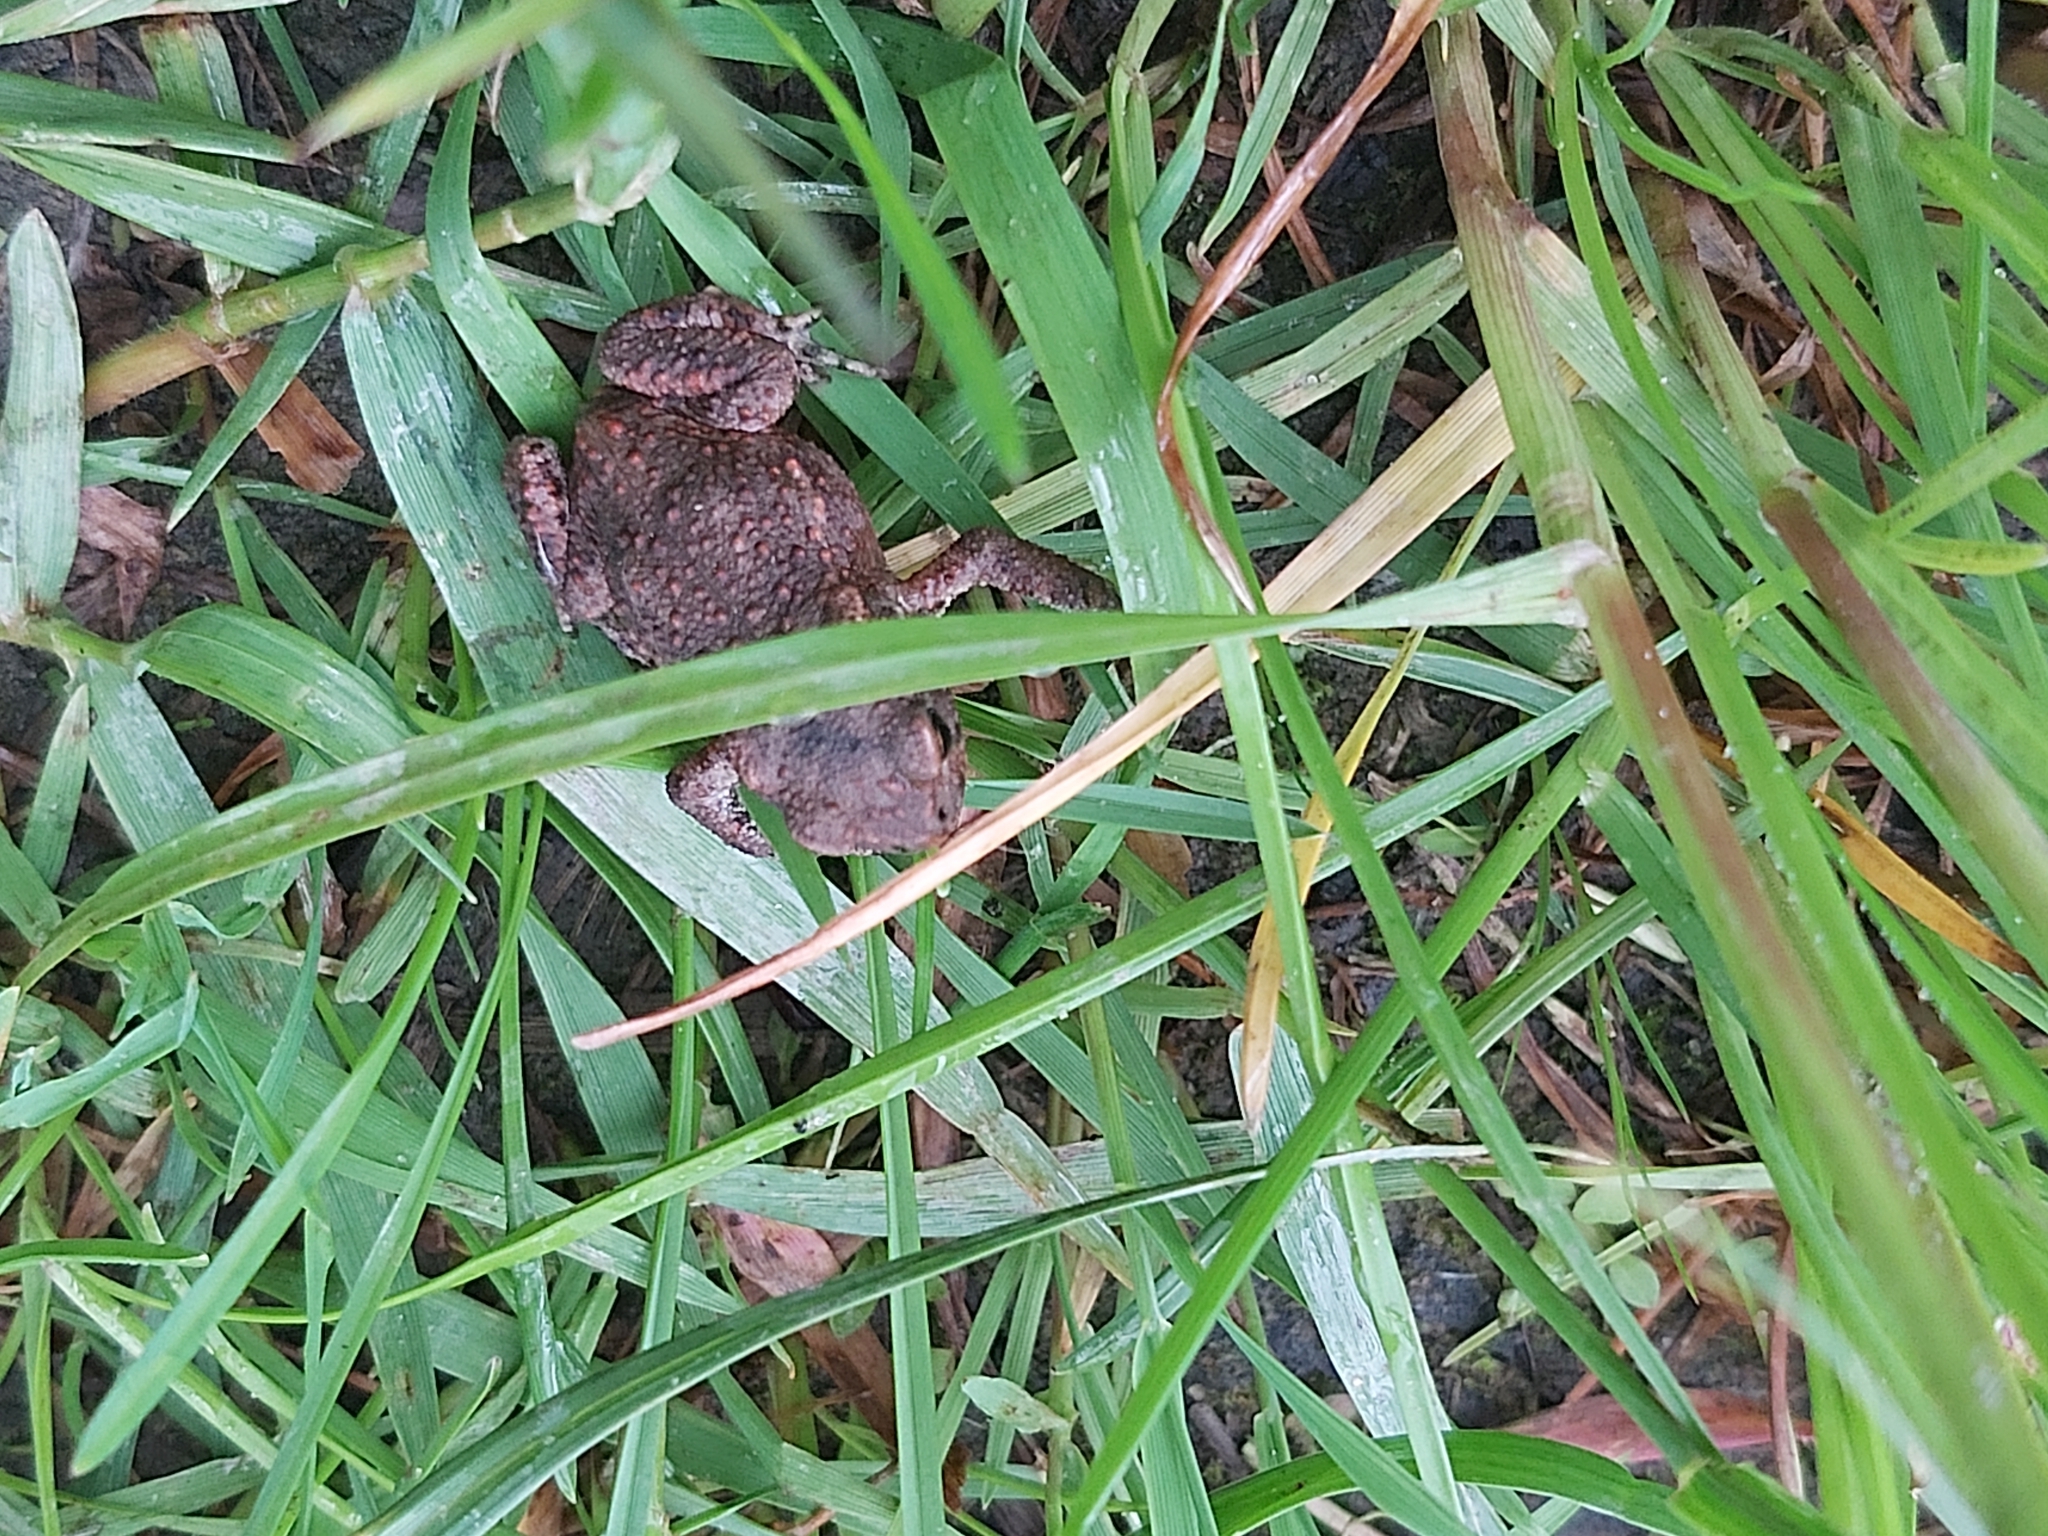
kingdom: Animalia
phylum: Chordata
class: Amphibia
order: Anura
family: Bufonidae
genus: Bufo
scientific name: Bufo bufo
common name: Common toad
